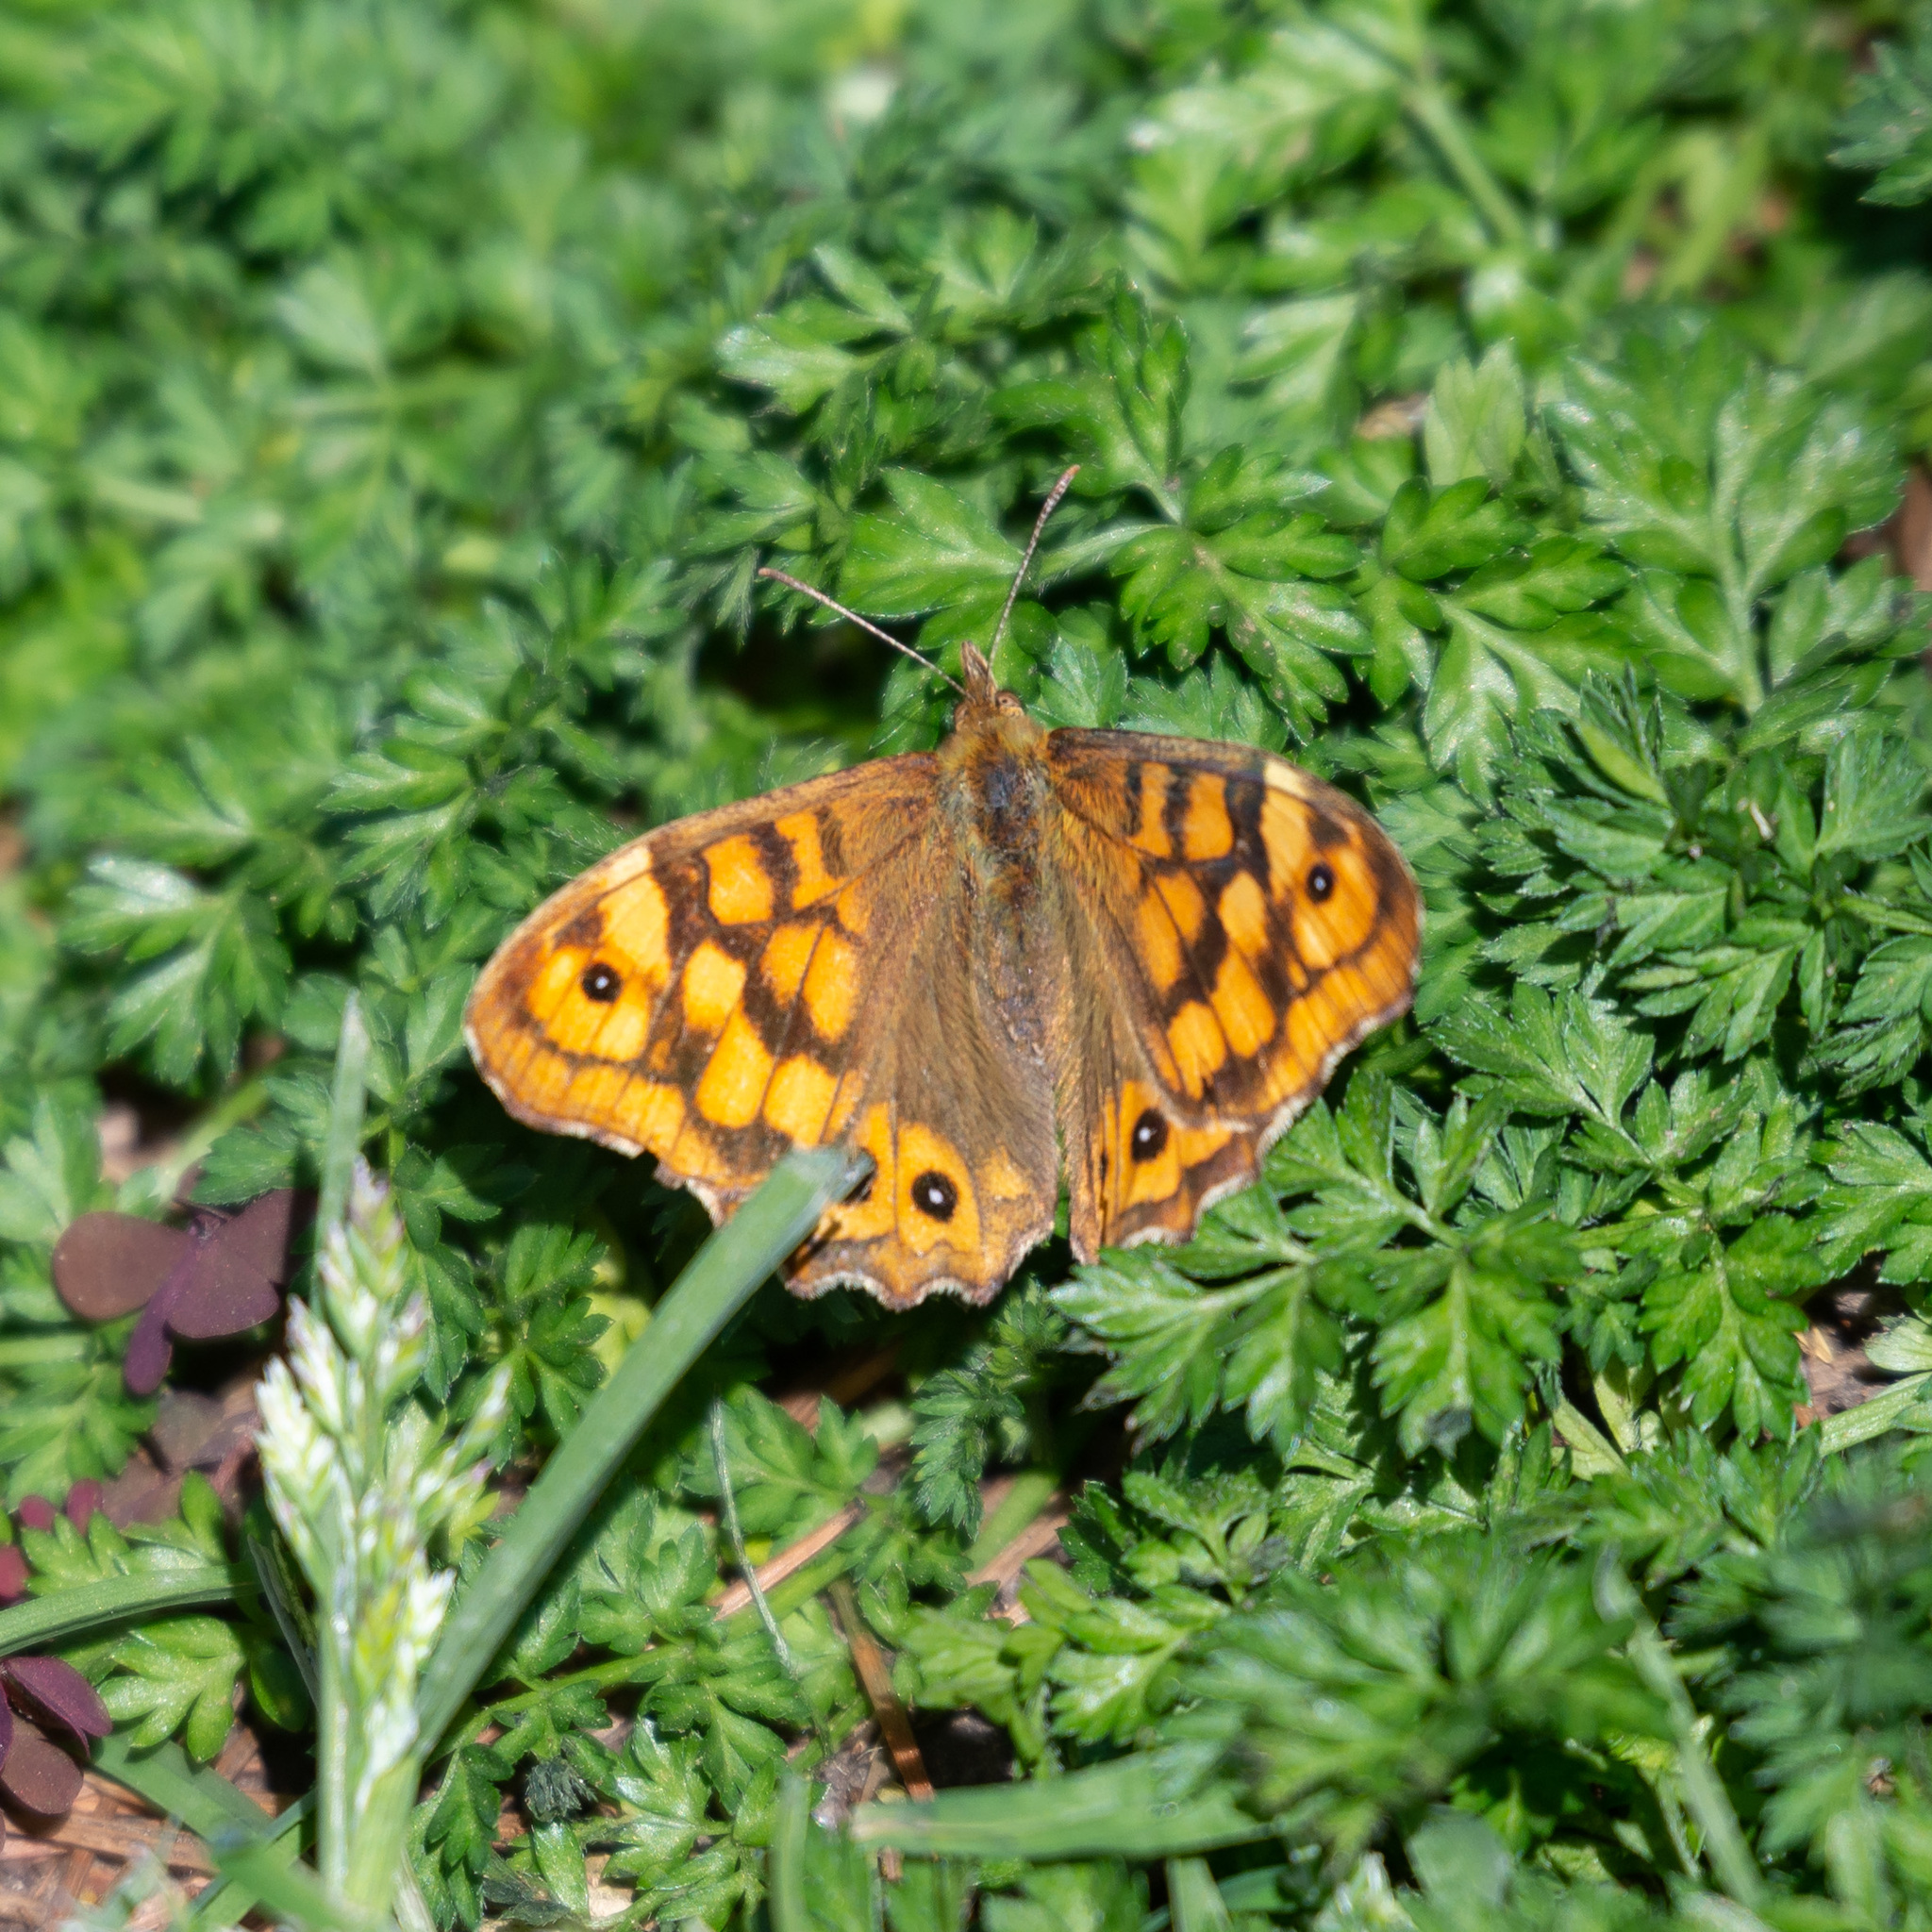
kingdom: Animalia
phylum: Arthropoda
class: Insecta
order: Lepidoptera
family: Nymphalidae
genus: Pararge
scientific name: Pararge aegeria
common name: Speckled wood
